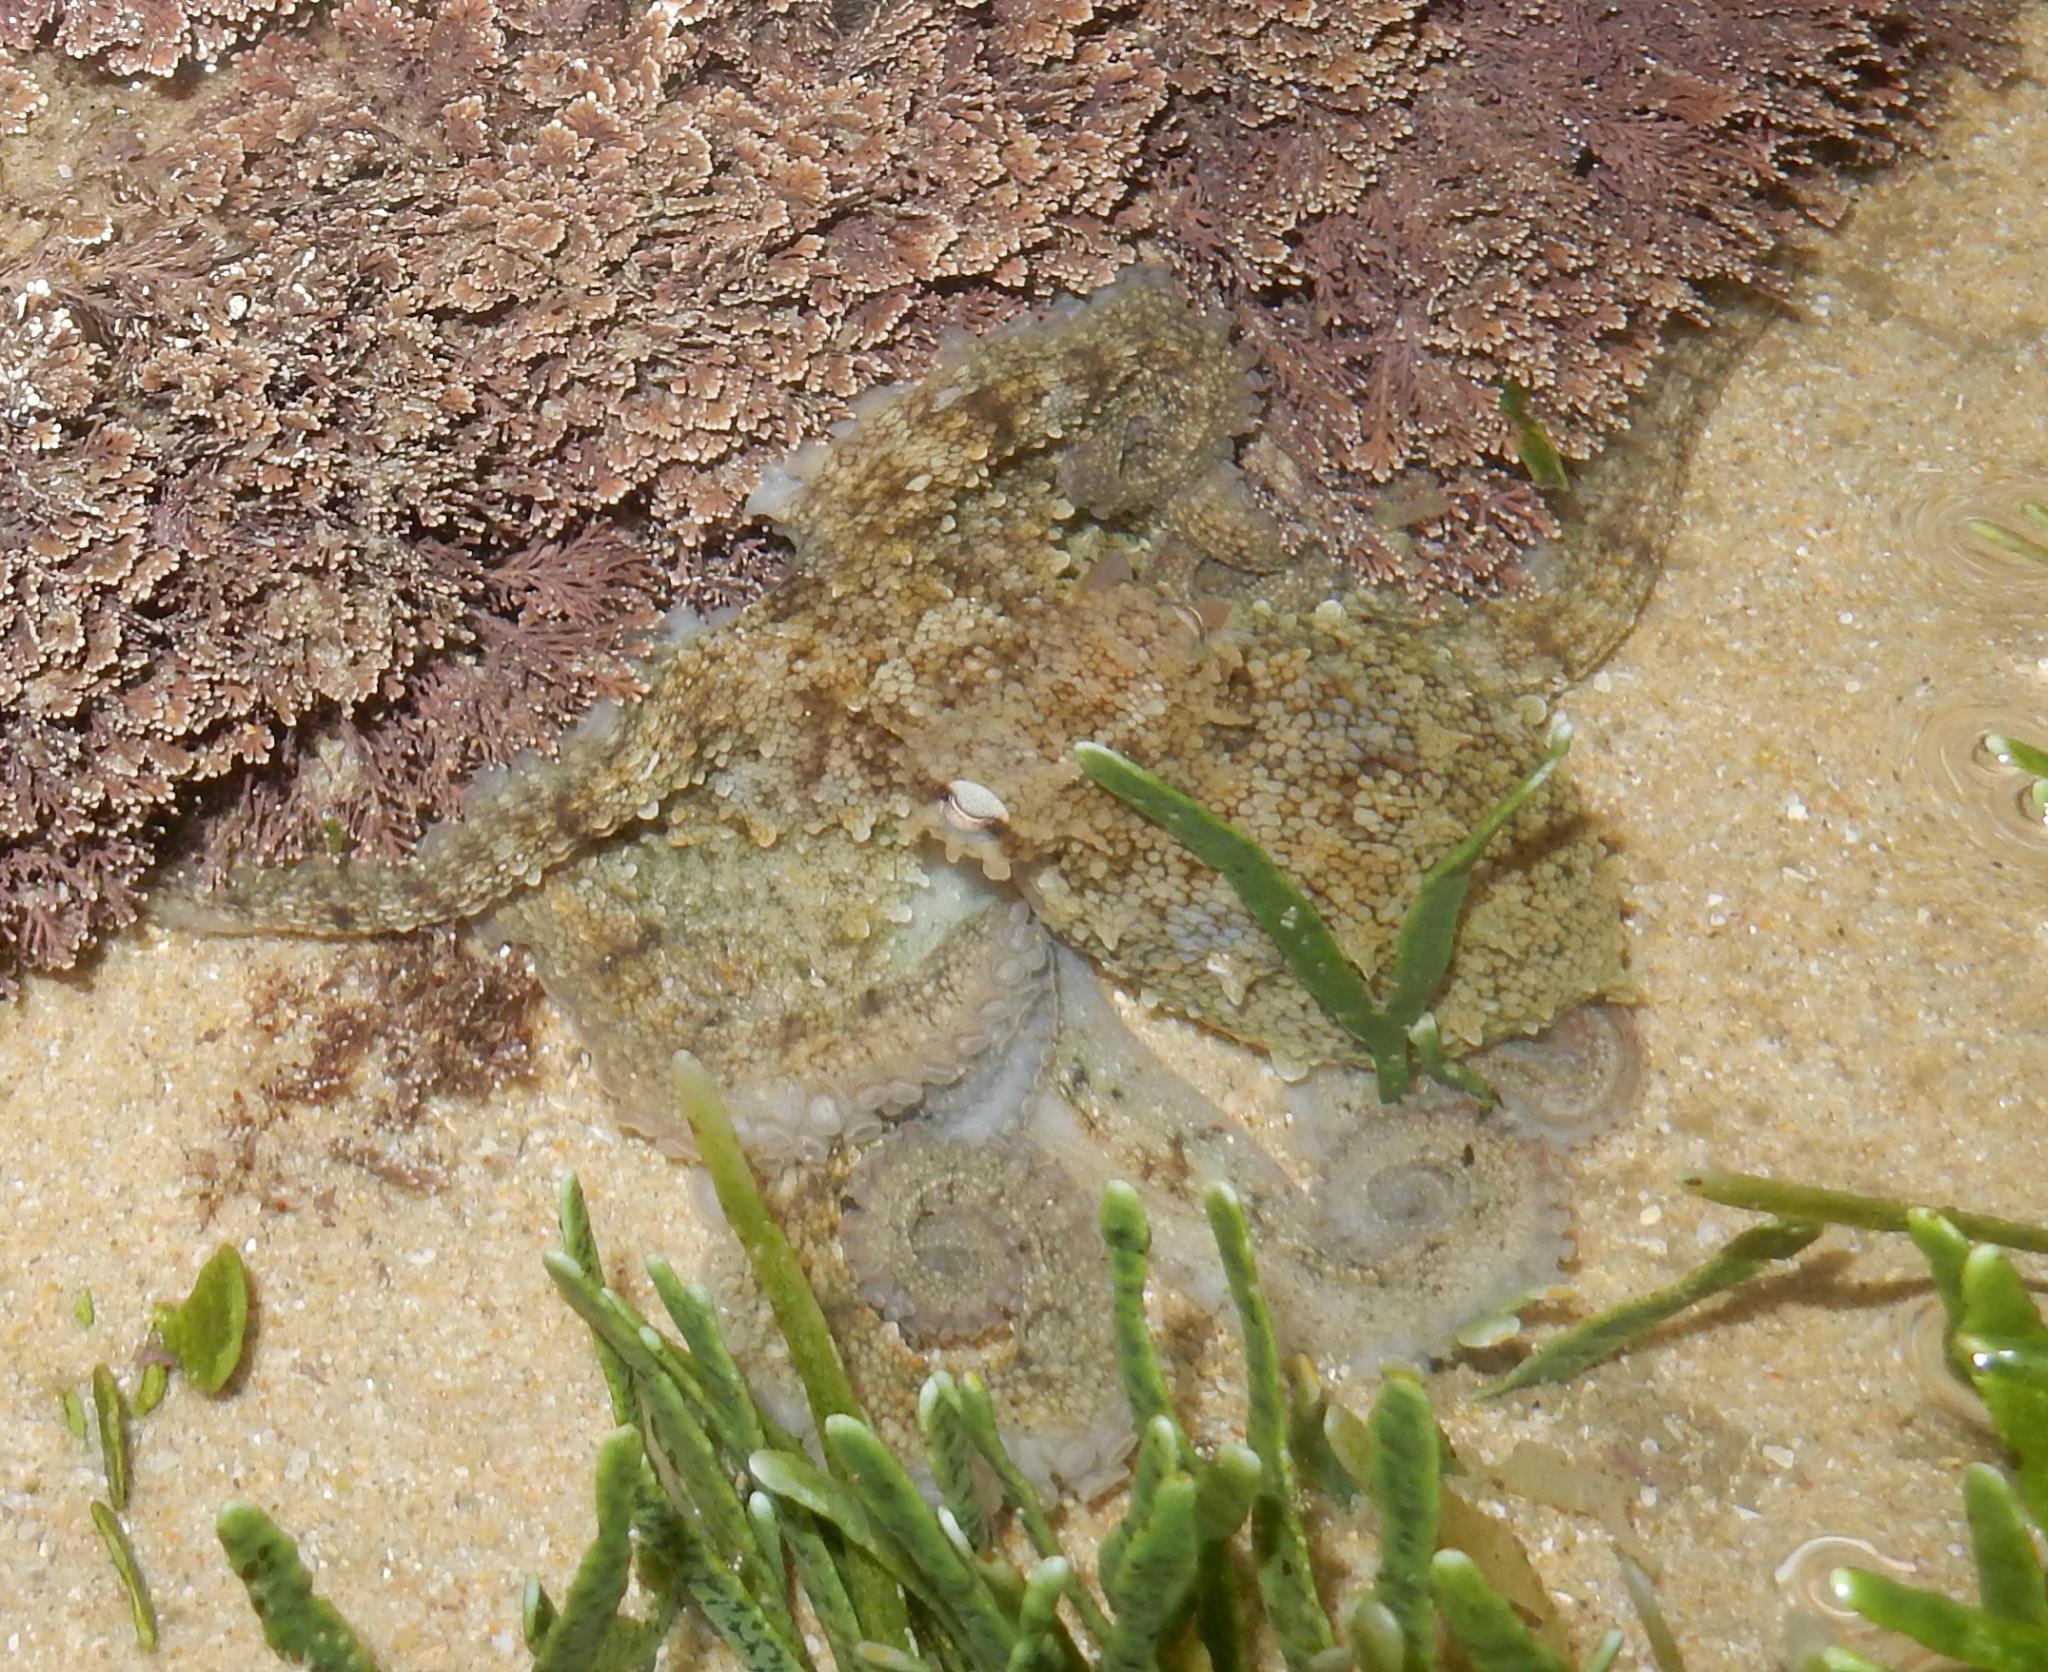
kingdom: Animalia
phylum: Mollusca
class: Cephalopoda
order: Octopoda
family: Octopodidae
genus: Octopus
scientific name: Octopus vulgaris
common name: Common octopus
